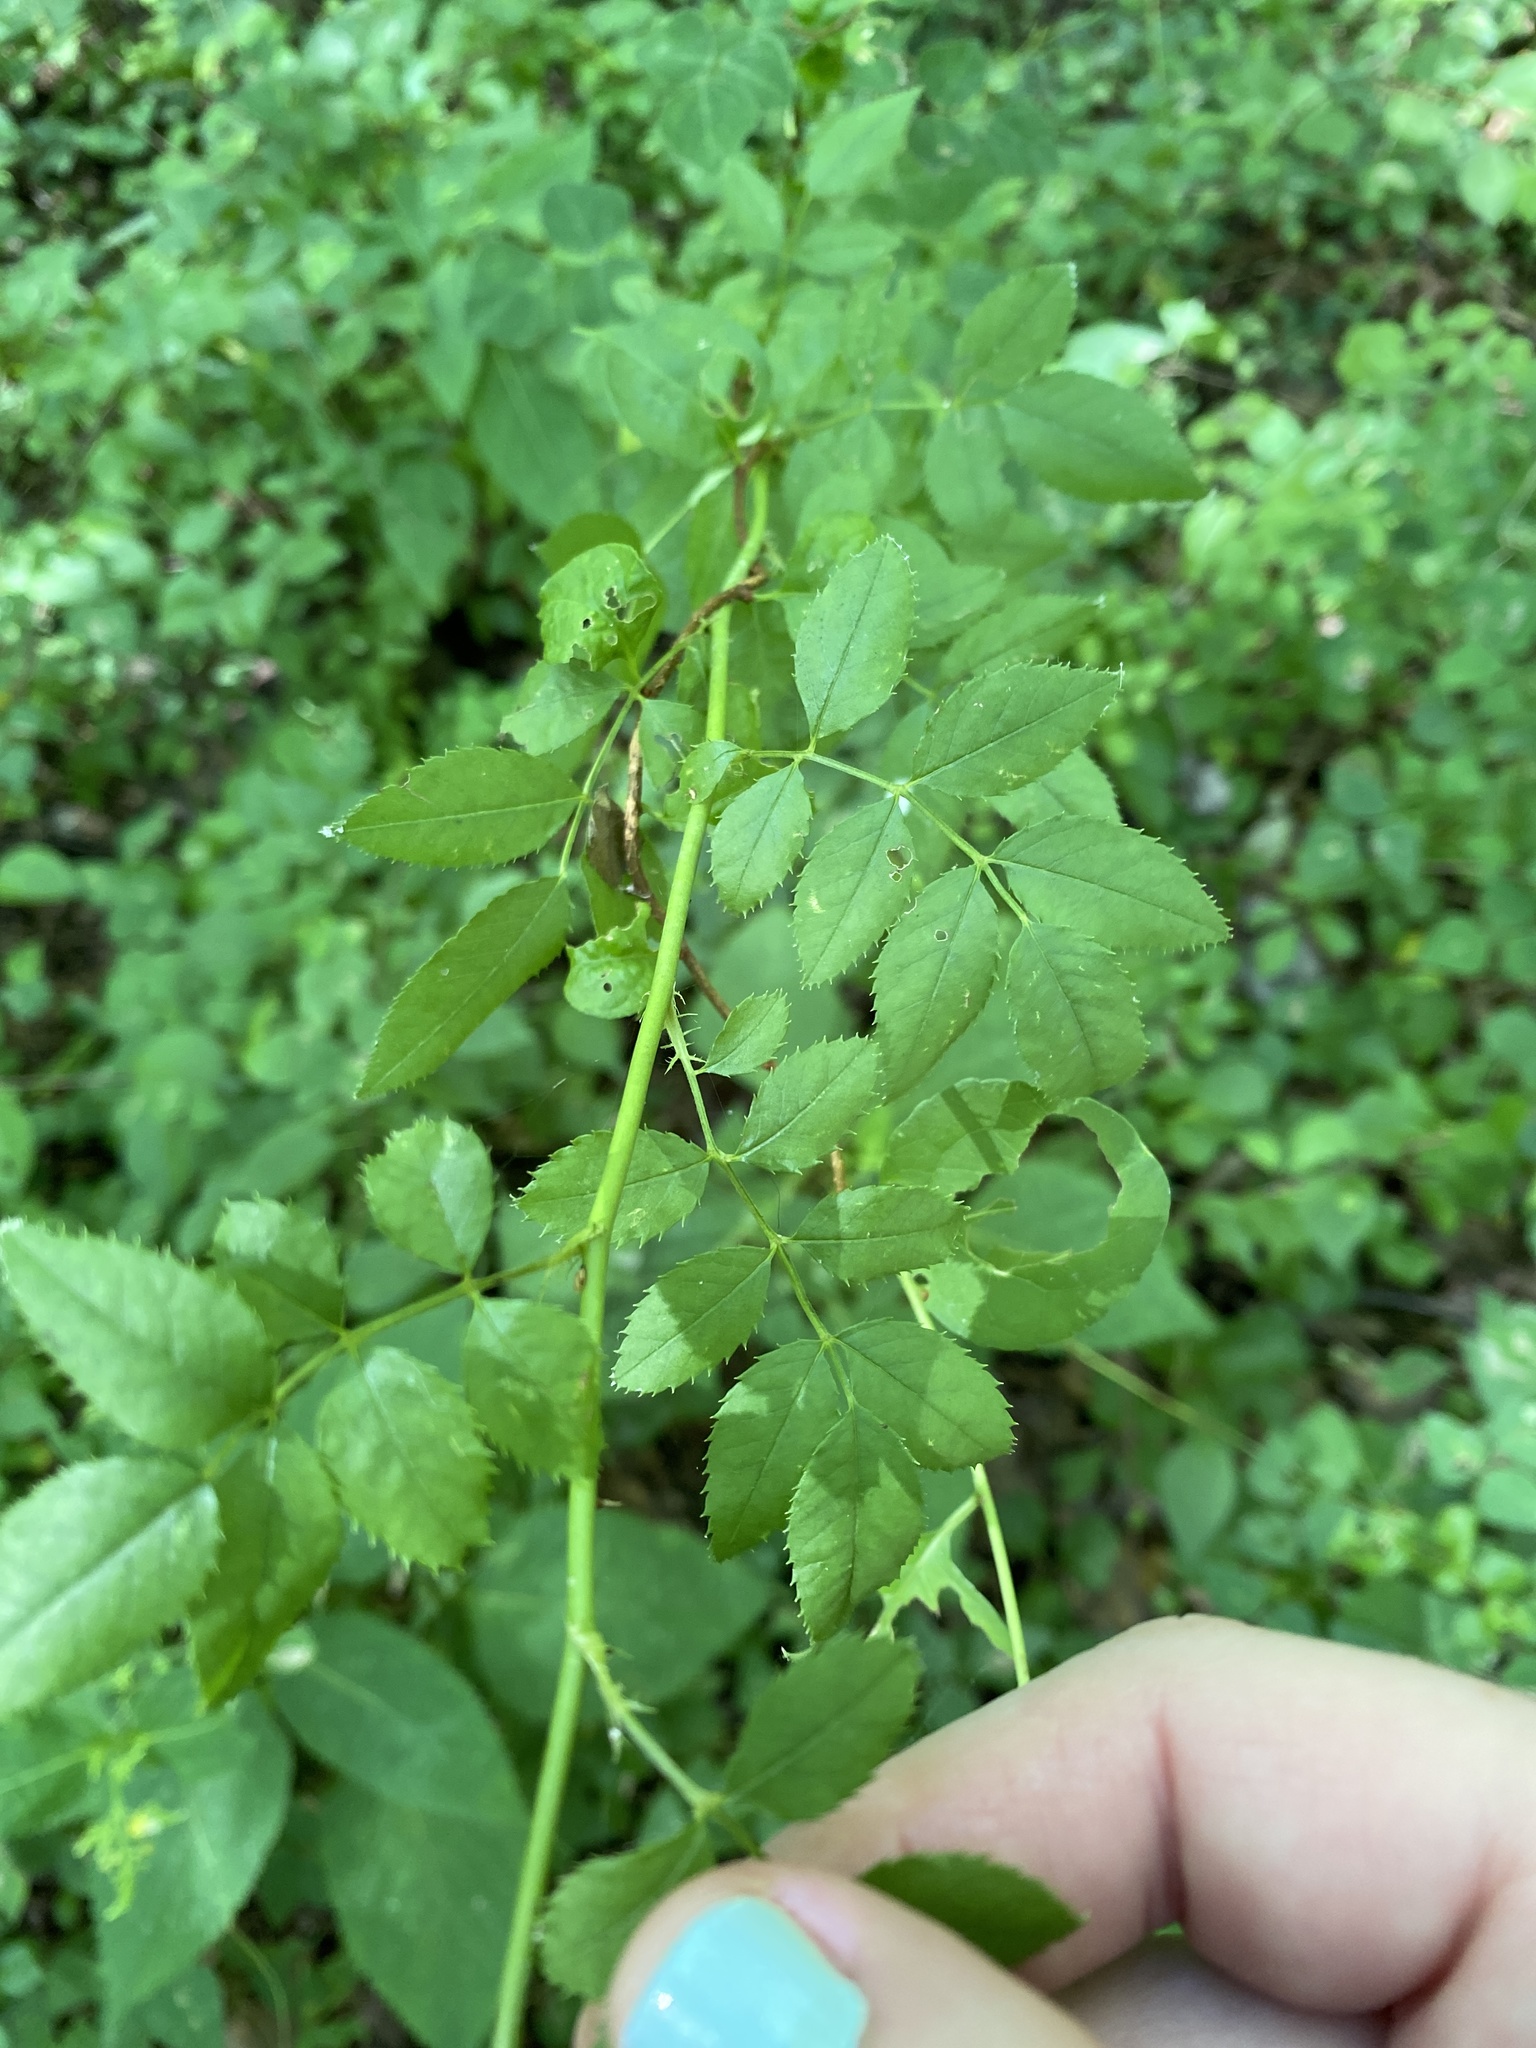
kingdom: Plantae
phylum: Tracheophyta
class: Magnoliopsida
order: Rosales
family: Rosaceae
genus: Rosa
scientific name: Rosa multiflora
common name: Multiflora rose
